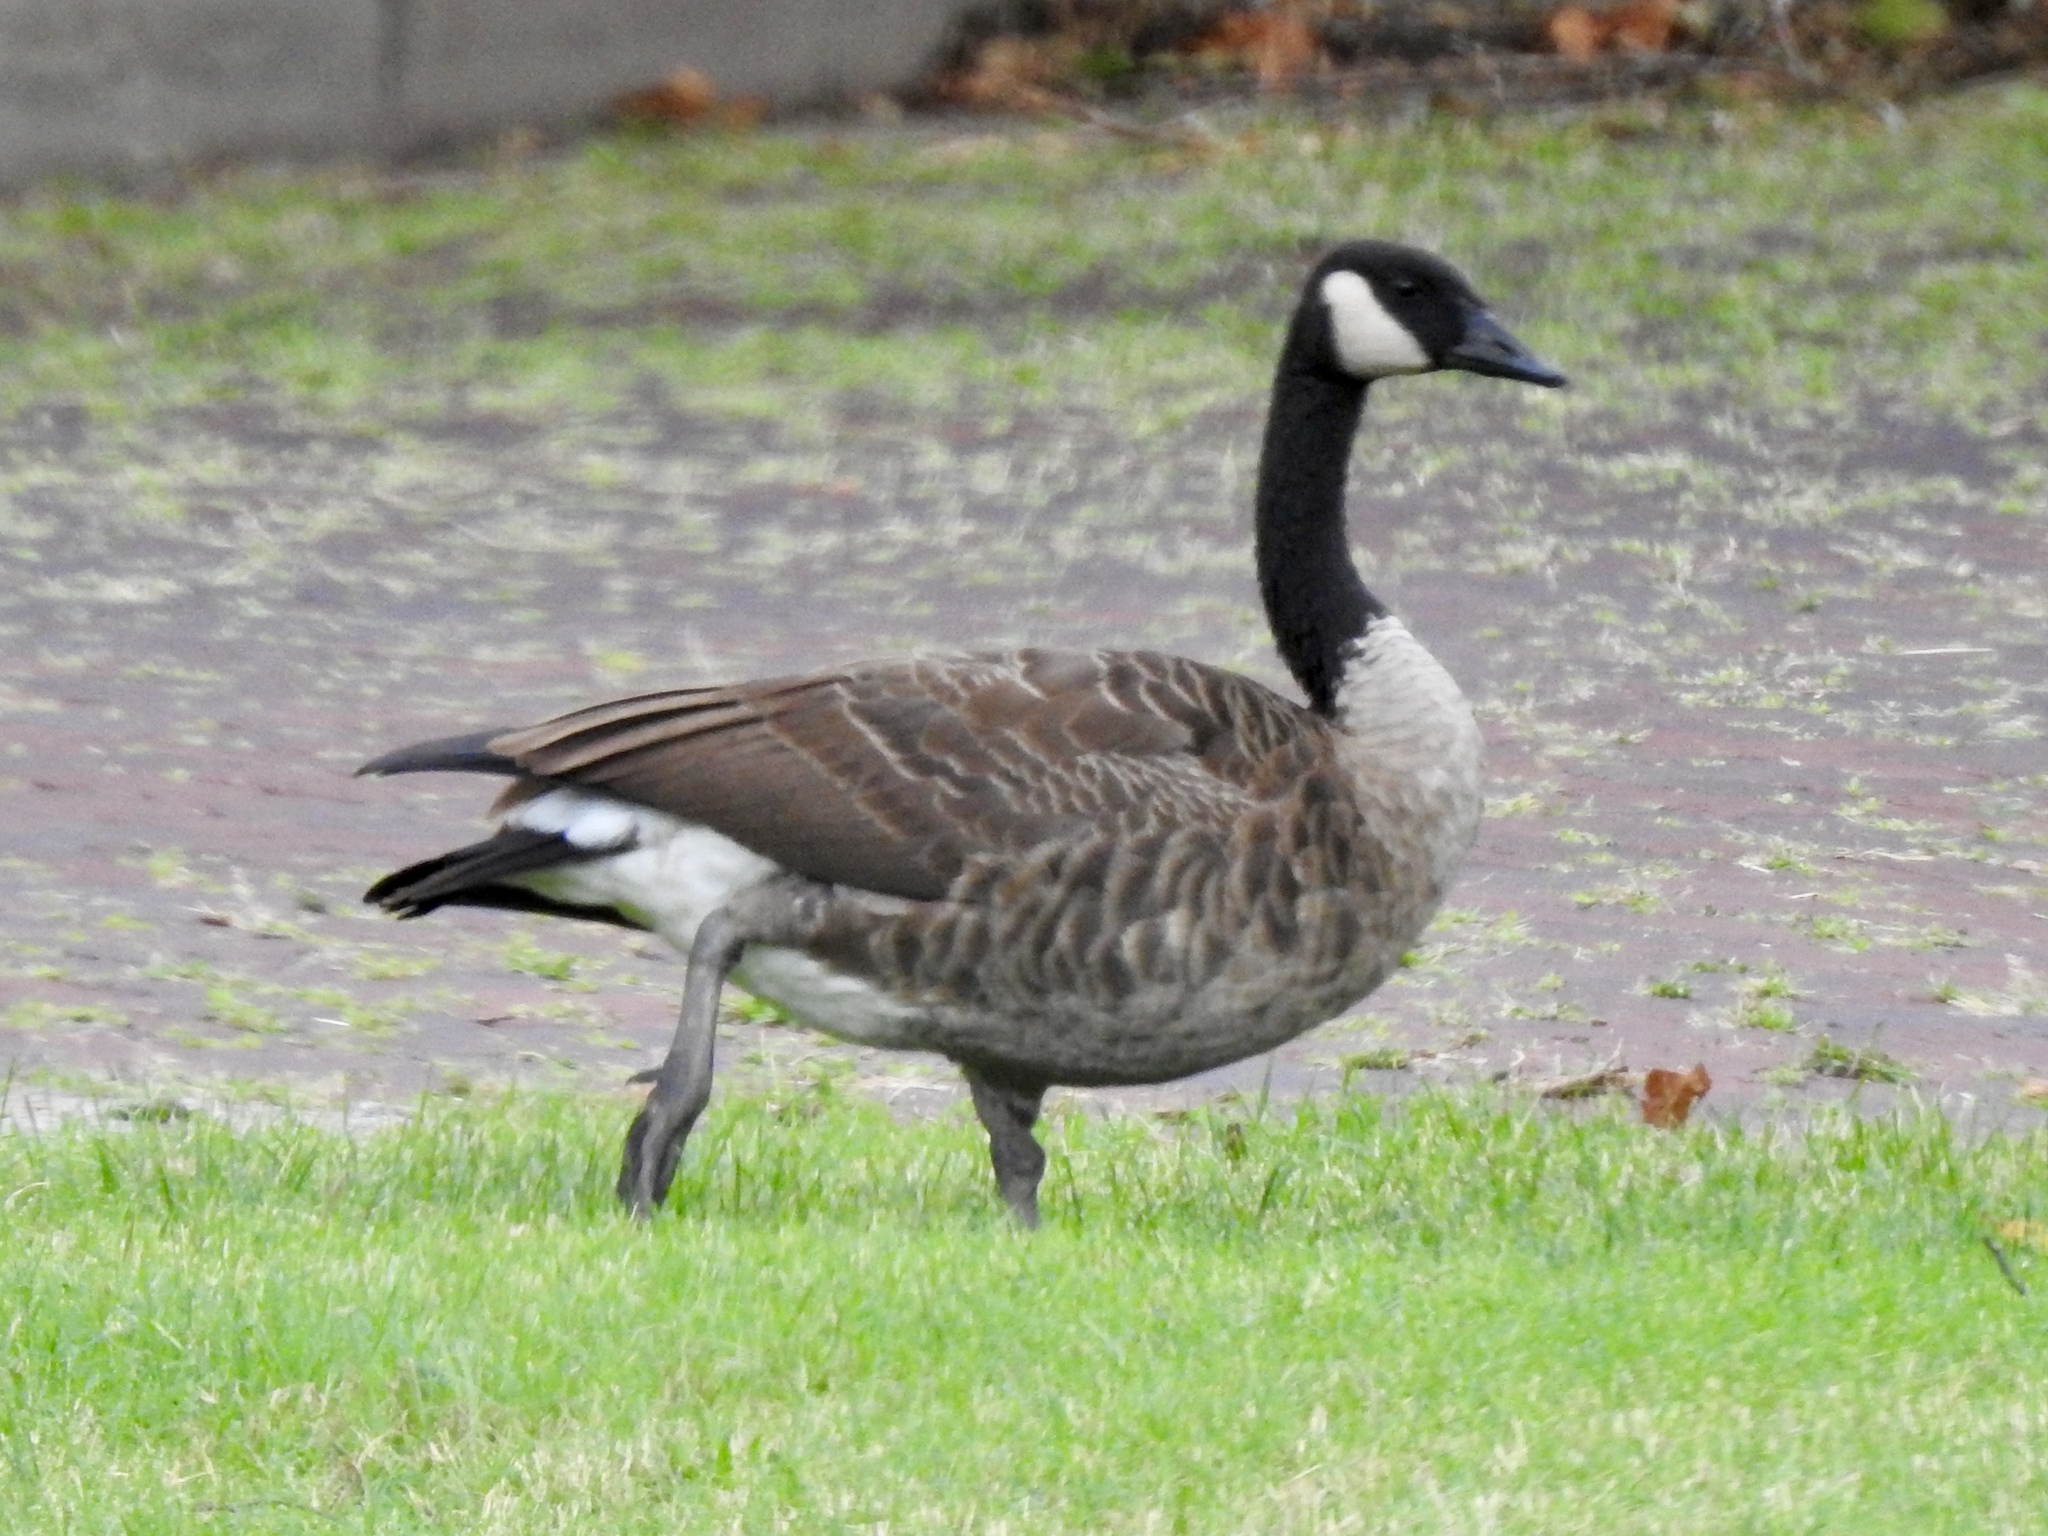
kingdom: Animalia
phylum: Chordata
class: Aves
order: Anseriformes
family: Anatidae
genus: Branta
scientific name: Branta canadensis
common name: Canada goose
